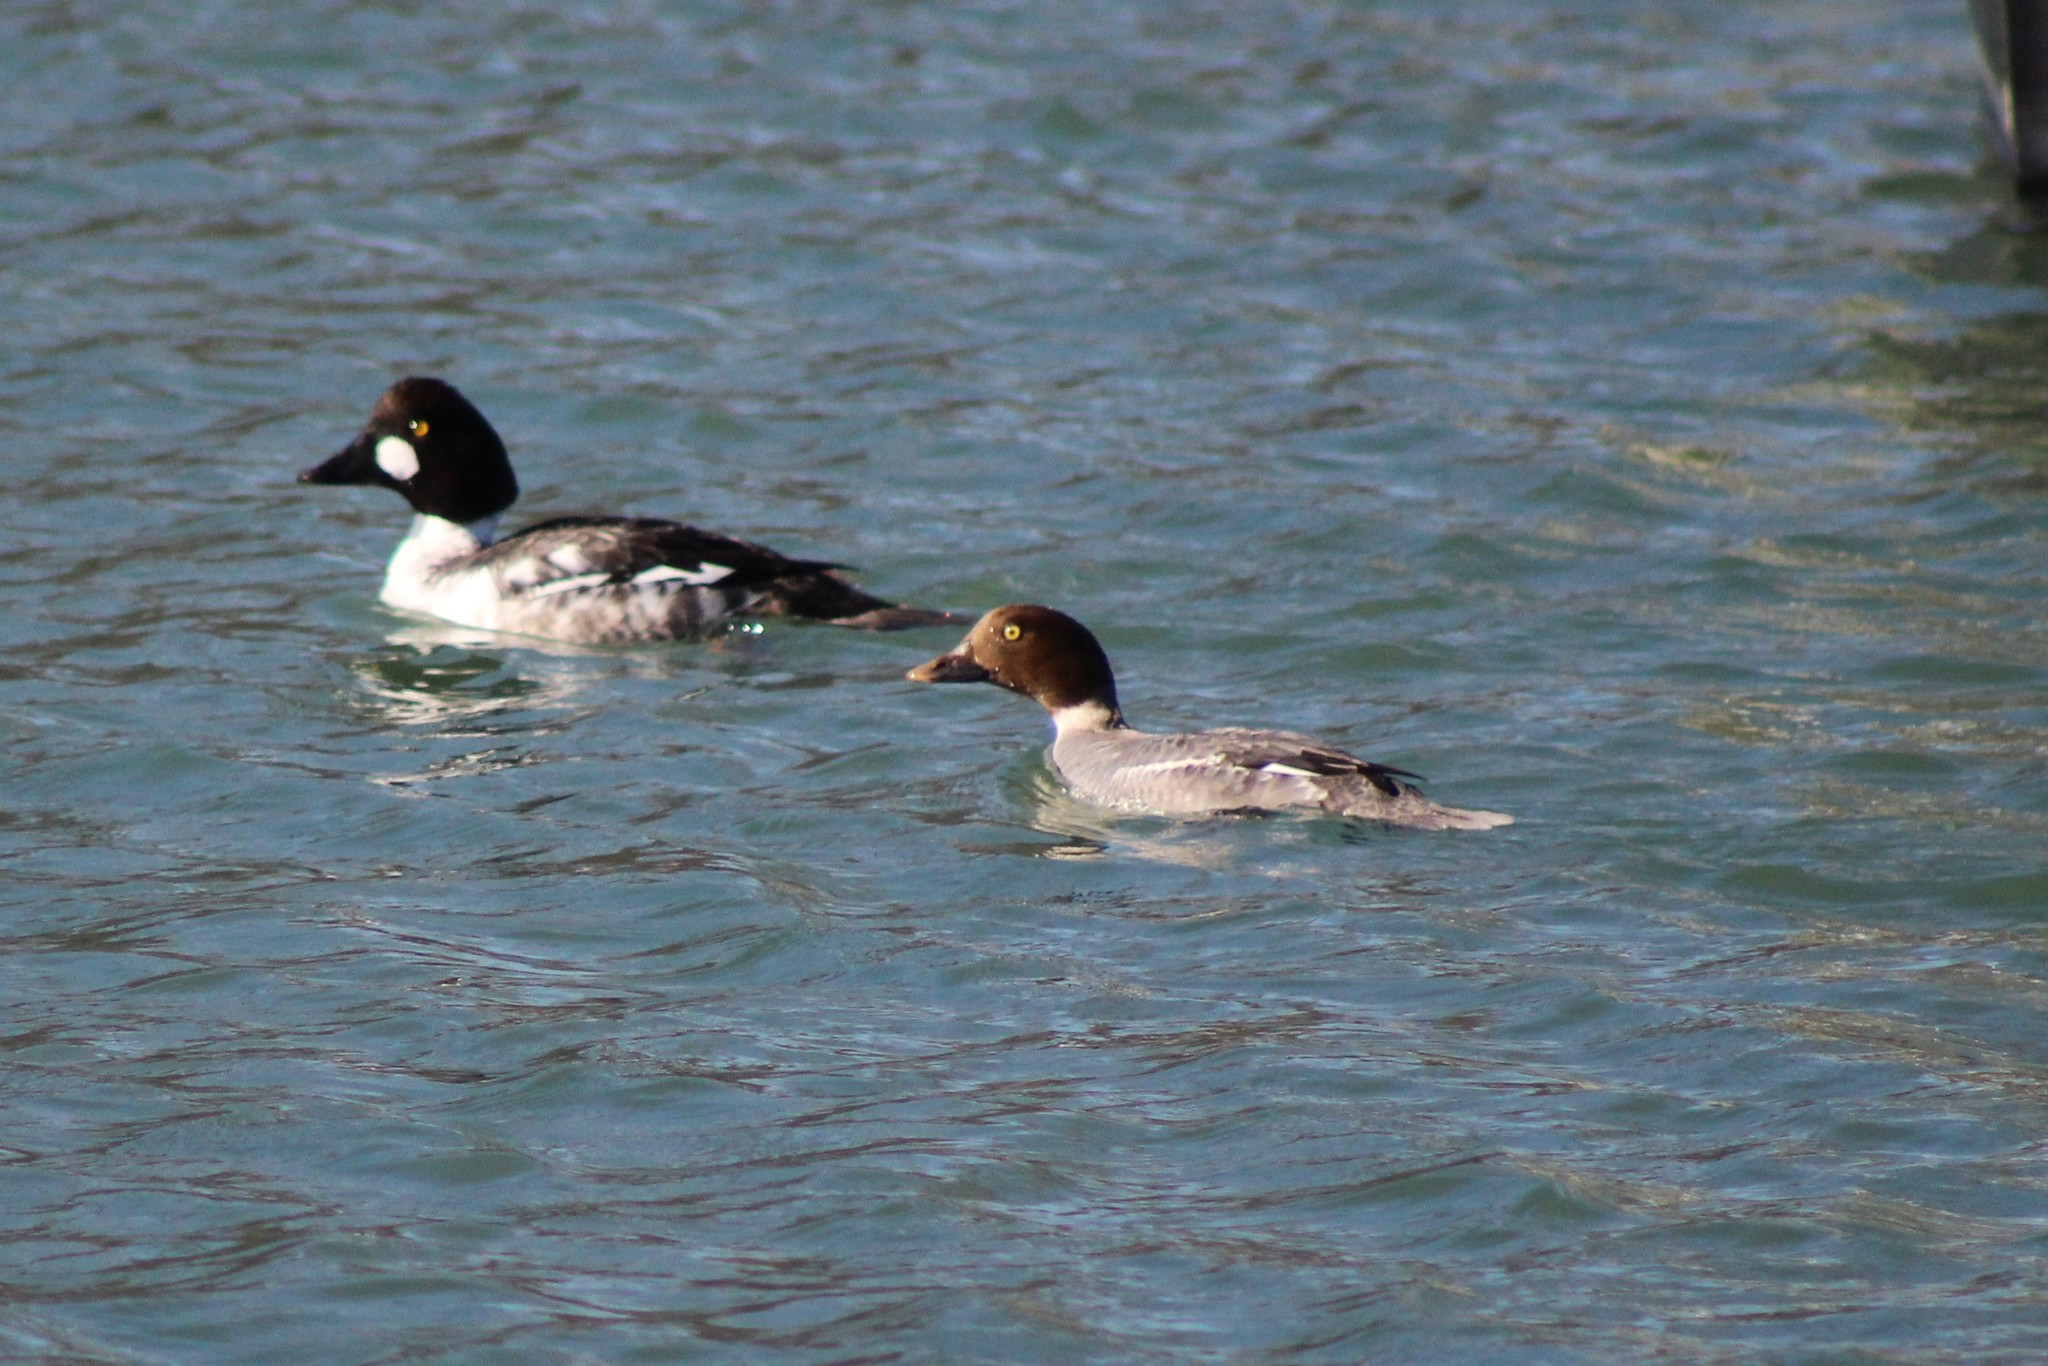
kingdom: Animalia
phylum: Chordata
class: Aves
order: Anseriformes
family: Anatidae
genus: Bucephala
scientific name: Bucephala clangula
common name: Common goldeneye
